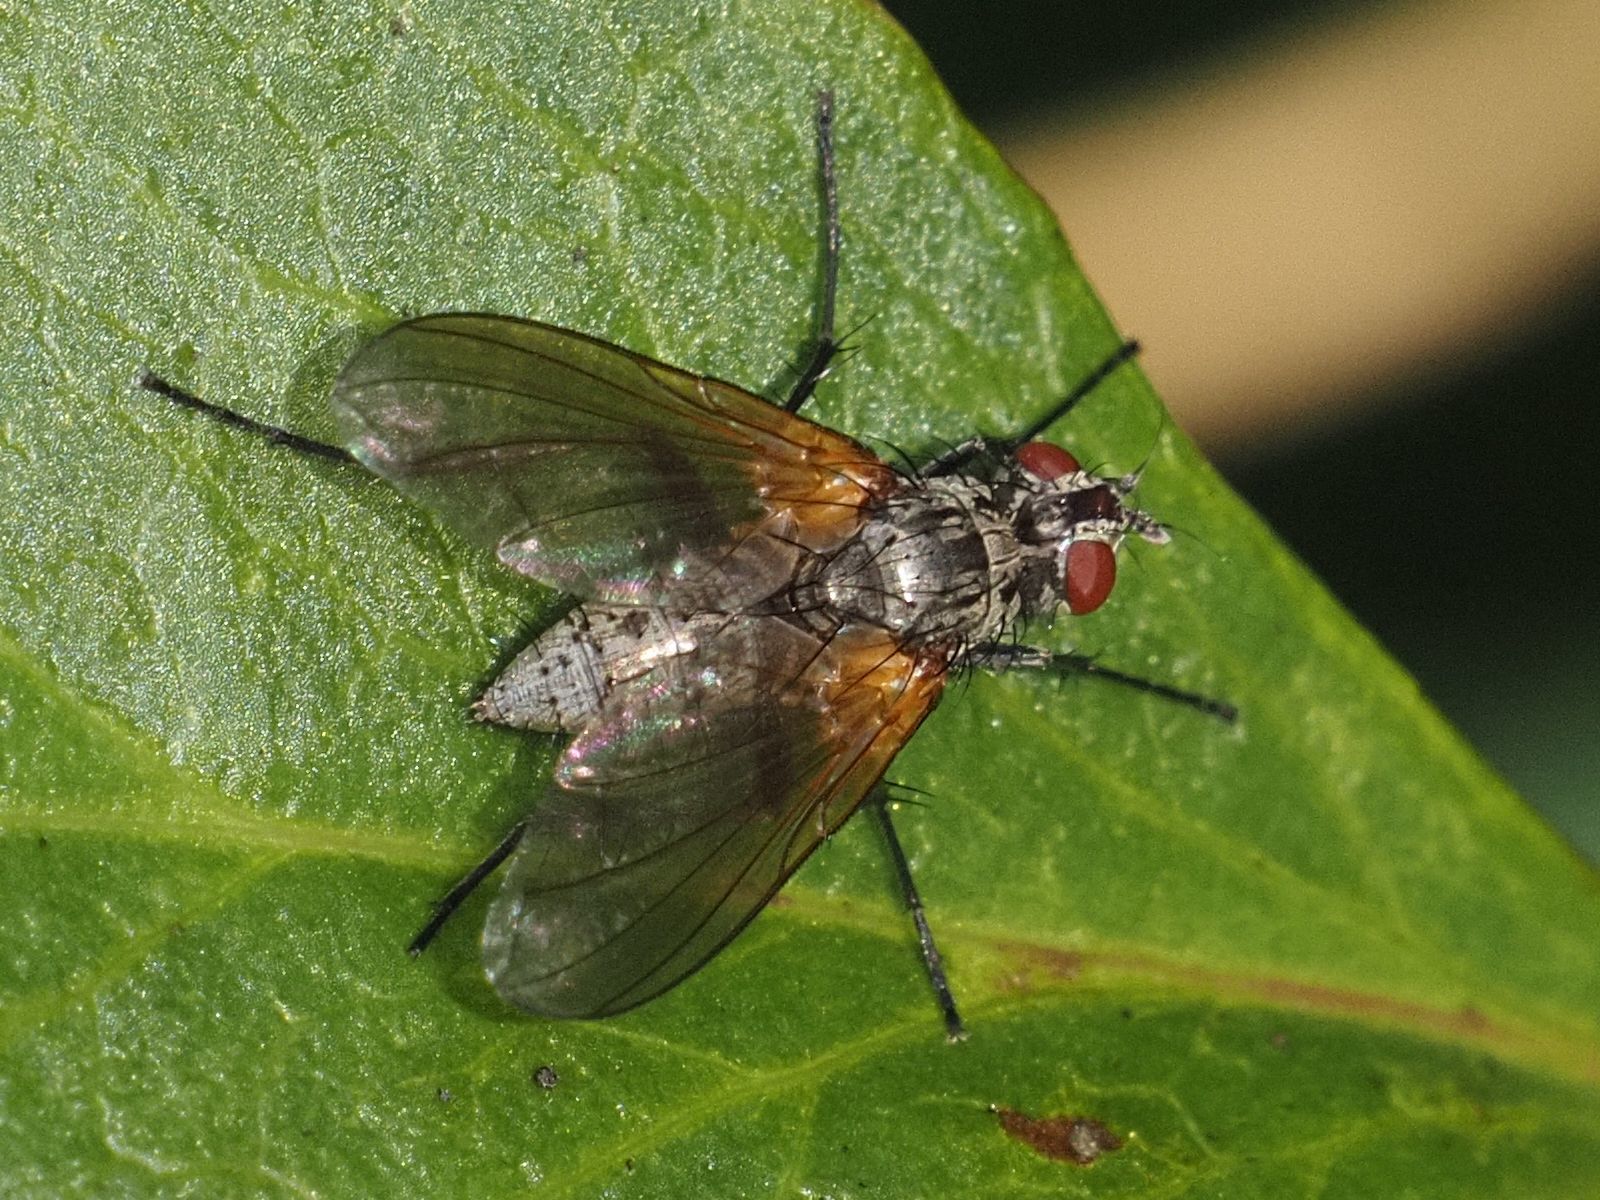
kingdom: Animalia
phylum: Arthropoda
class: Insecta
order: Diptera
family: Tachinidae
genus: Macquartia
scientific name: Macquartia grisea
